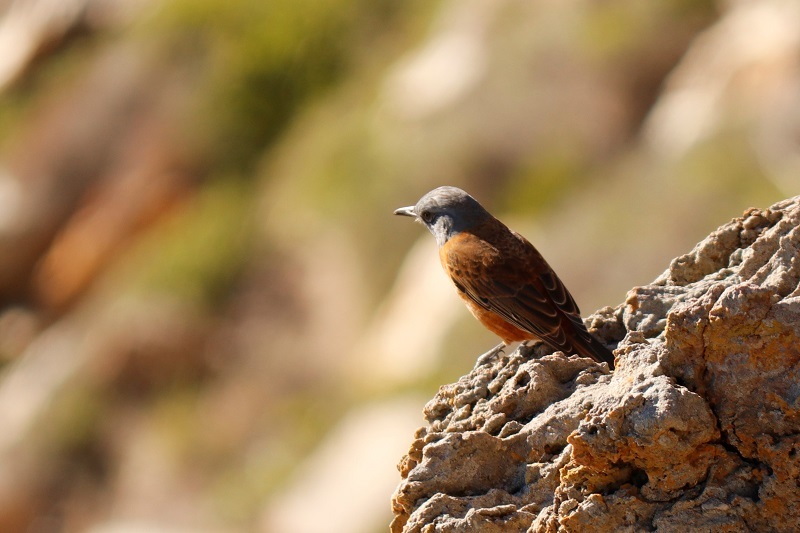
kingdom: Animalia
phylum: Chordata
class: Aves
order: Passeriformes
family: Muscicapidae
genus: Monticola
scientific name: Monticola rupestris
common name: Cape rock thrush
